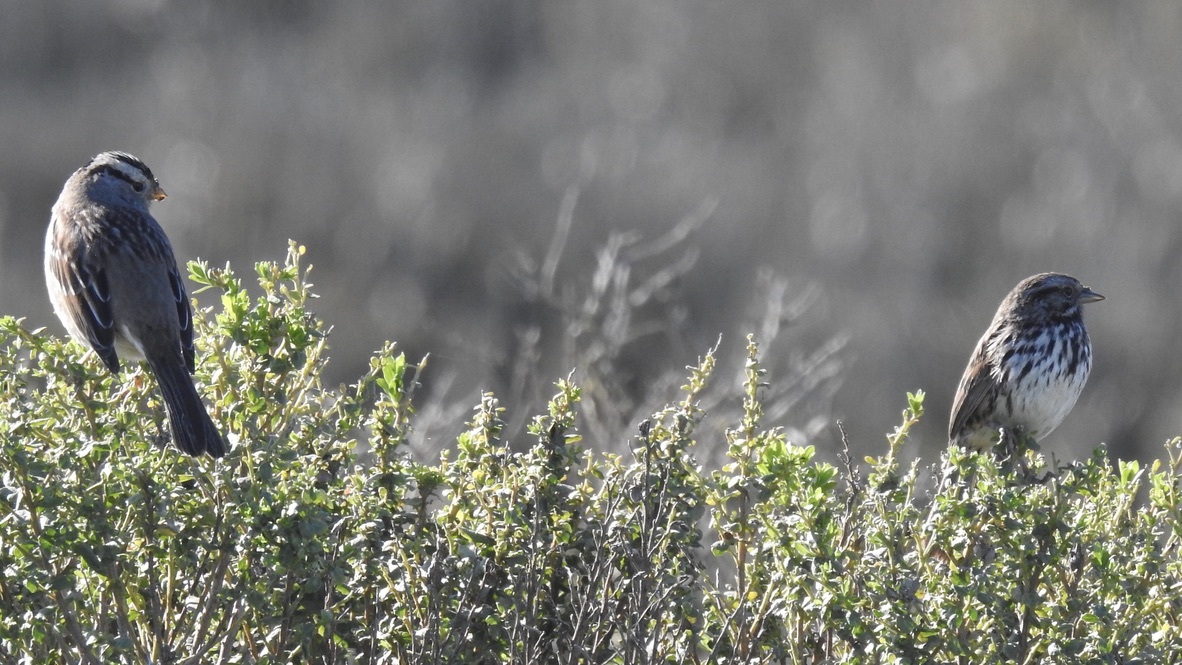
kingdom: Animalia
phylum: Chordata
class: Aves
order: Passeriformes
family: Passerellidae
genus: Melospiza
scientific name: Melospiza melodia
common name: Song sparrow
